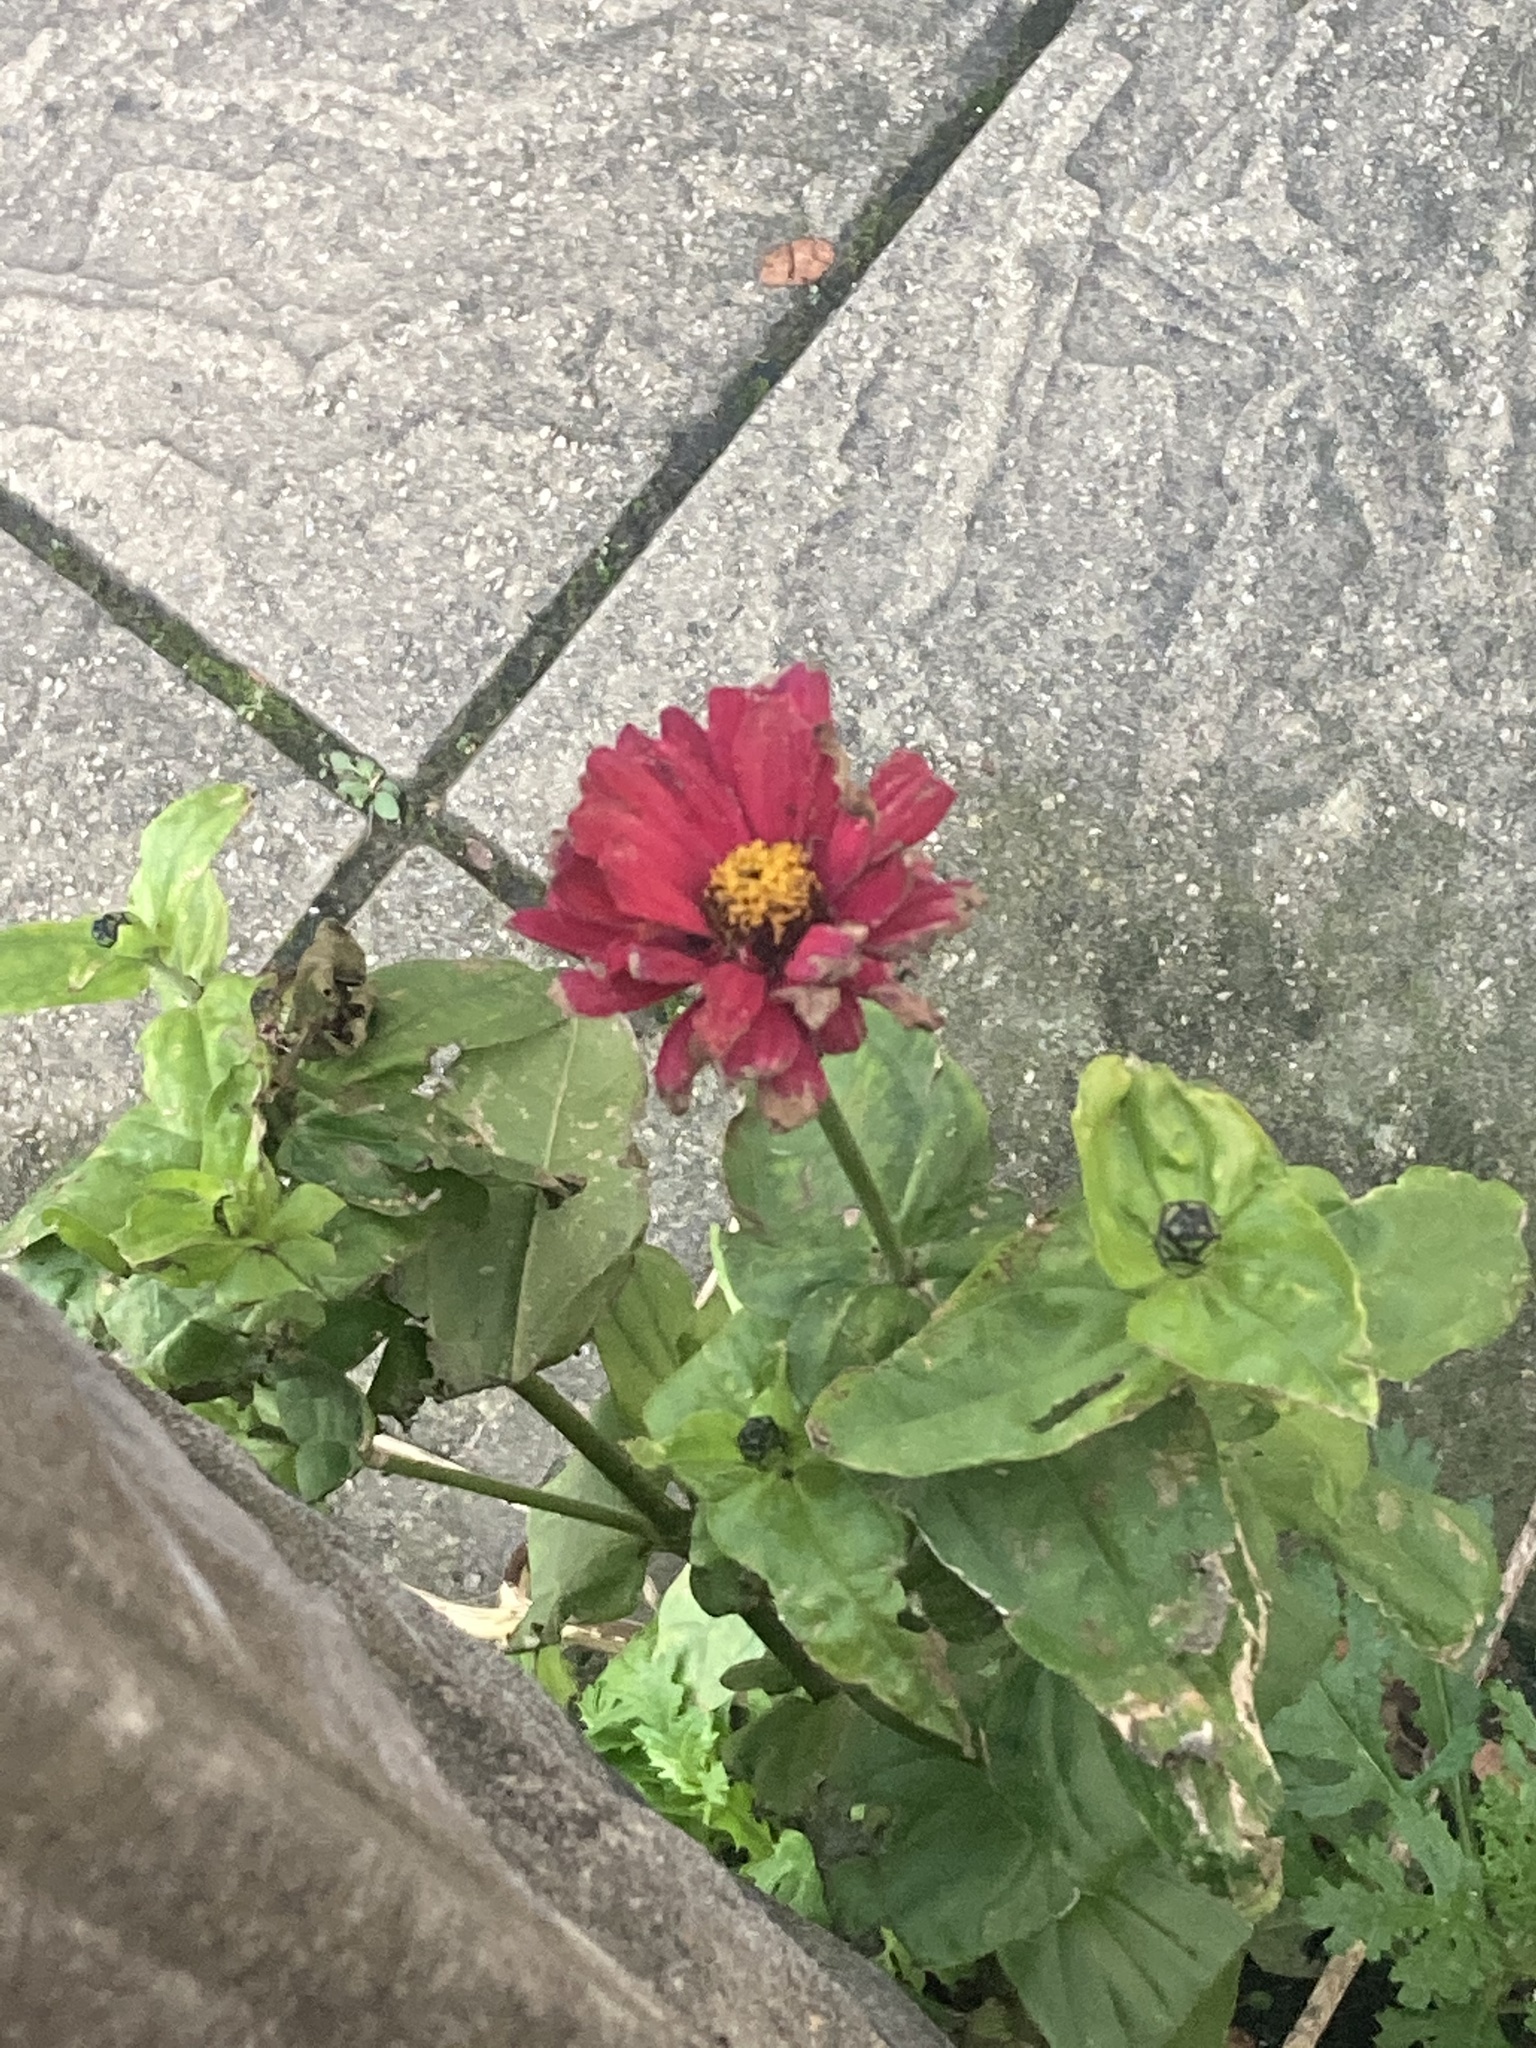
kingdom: Plantae
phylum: Tracheophyta
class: Magnoliopsida
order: Asterales
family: Asteraceae
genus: Zinnia
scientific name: Zinnia elegans
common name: Youth-and-age
